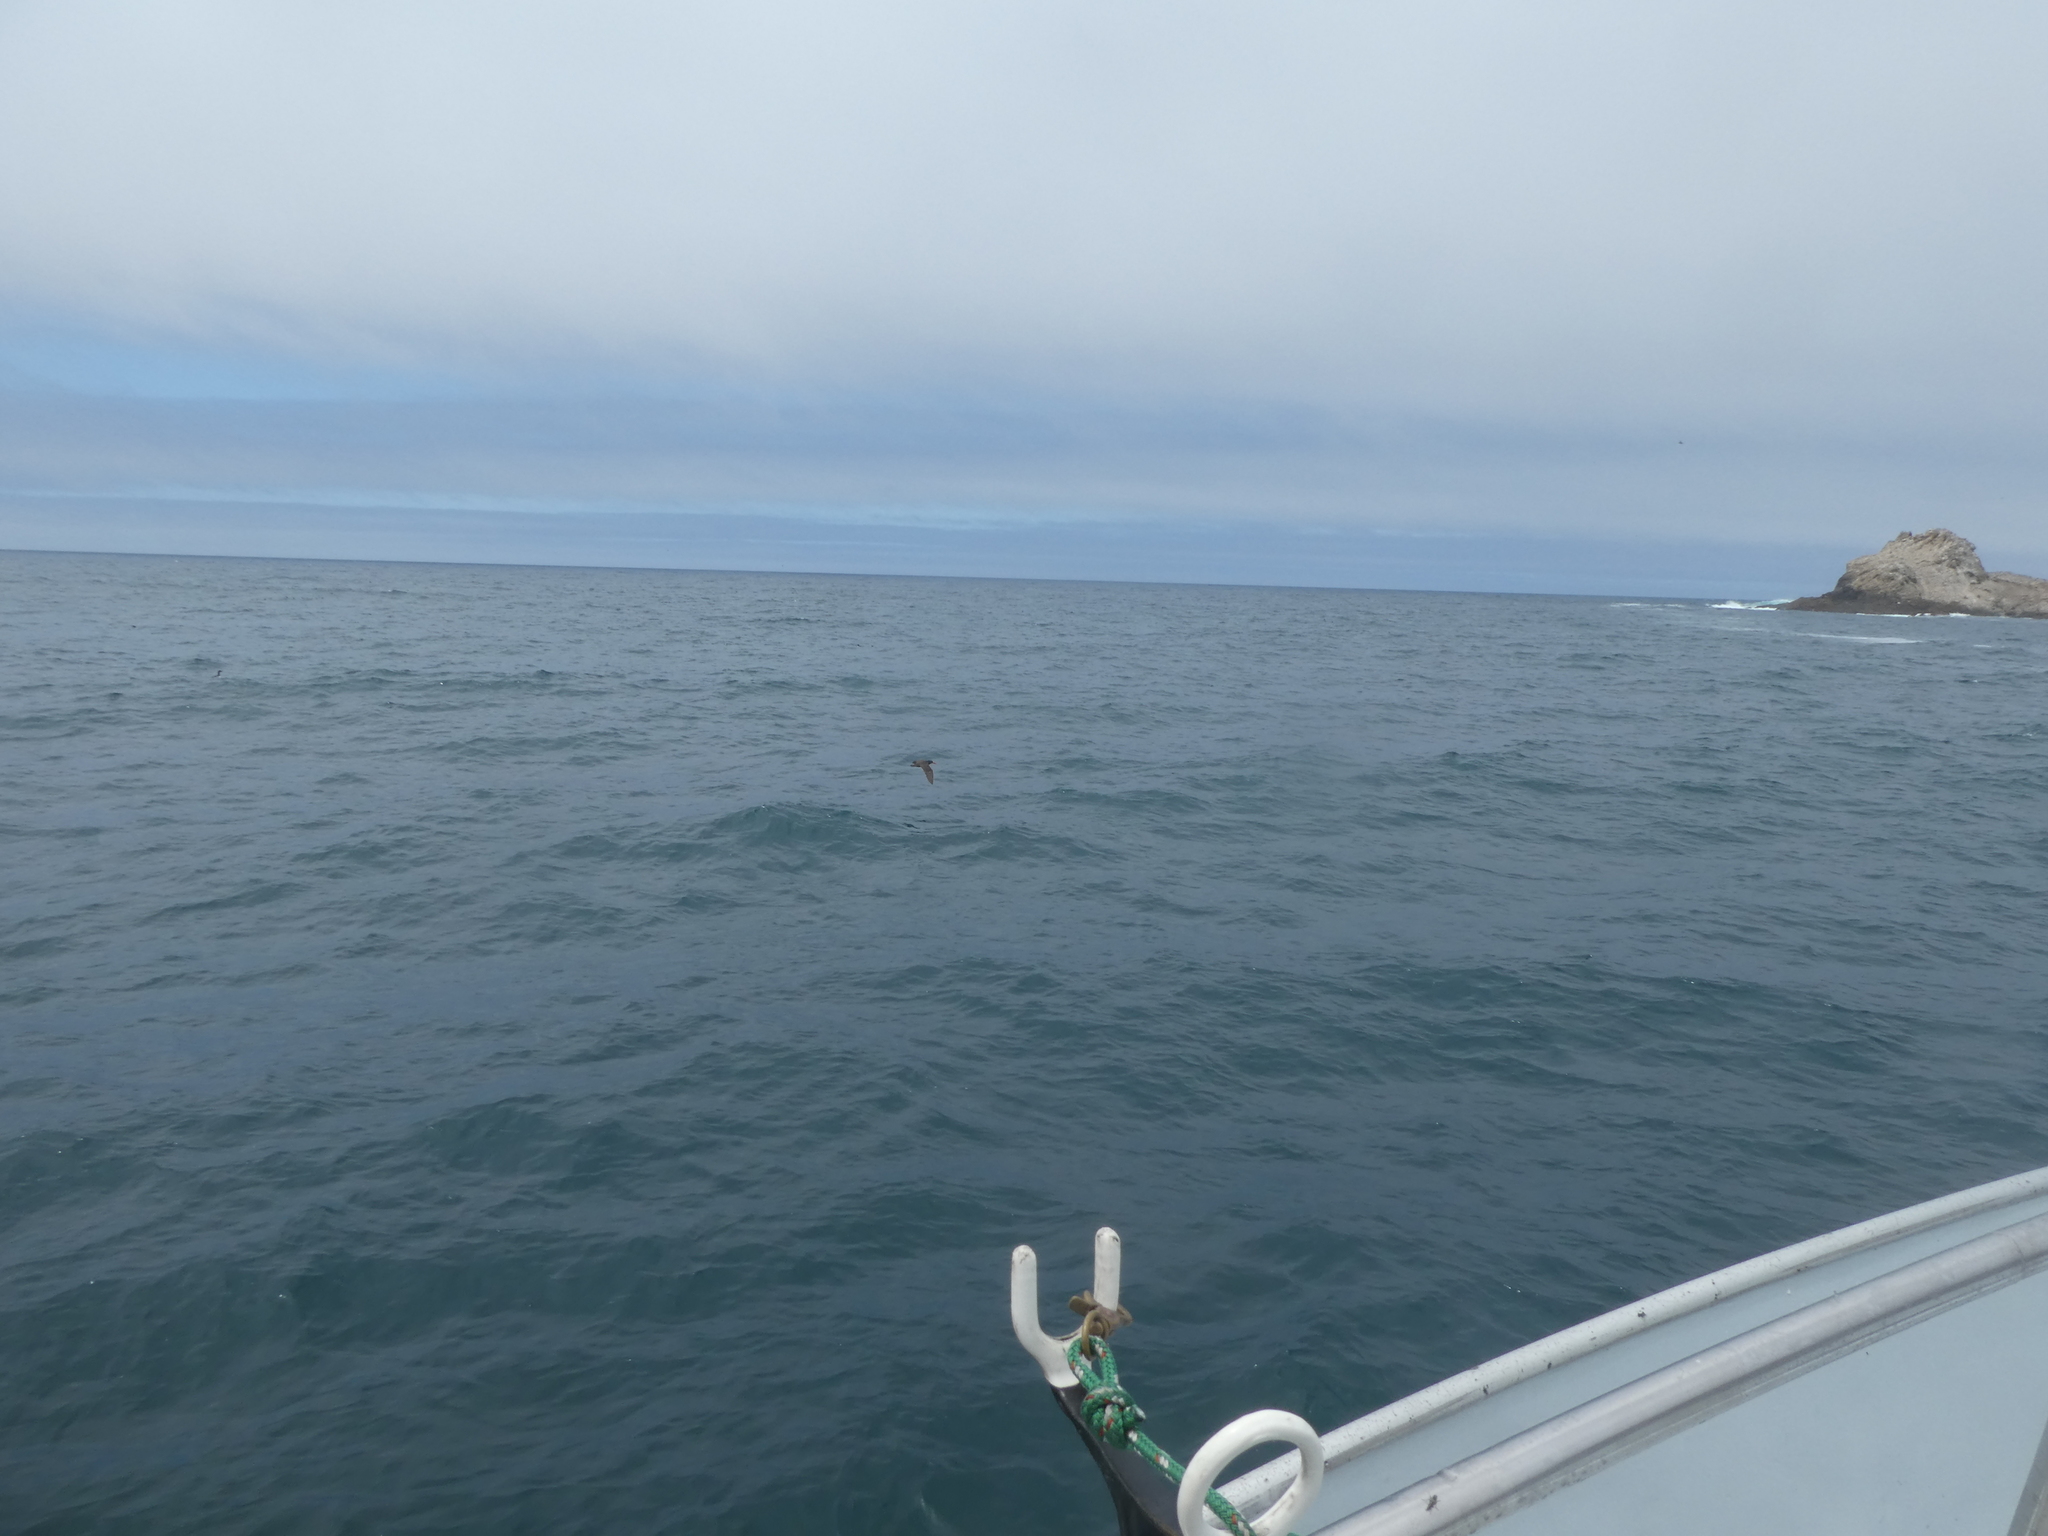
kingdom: Animalia
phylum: Chordata
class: Aves
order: Charadriiformes
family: Haematopodidae
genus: Haematopus
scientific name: Haematopus bachmani
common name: Black oystercatcher
